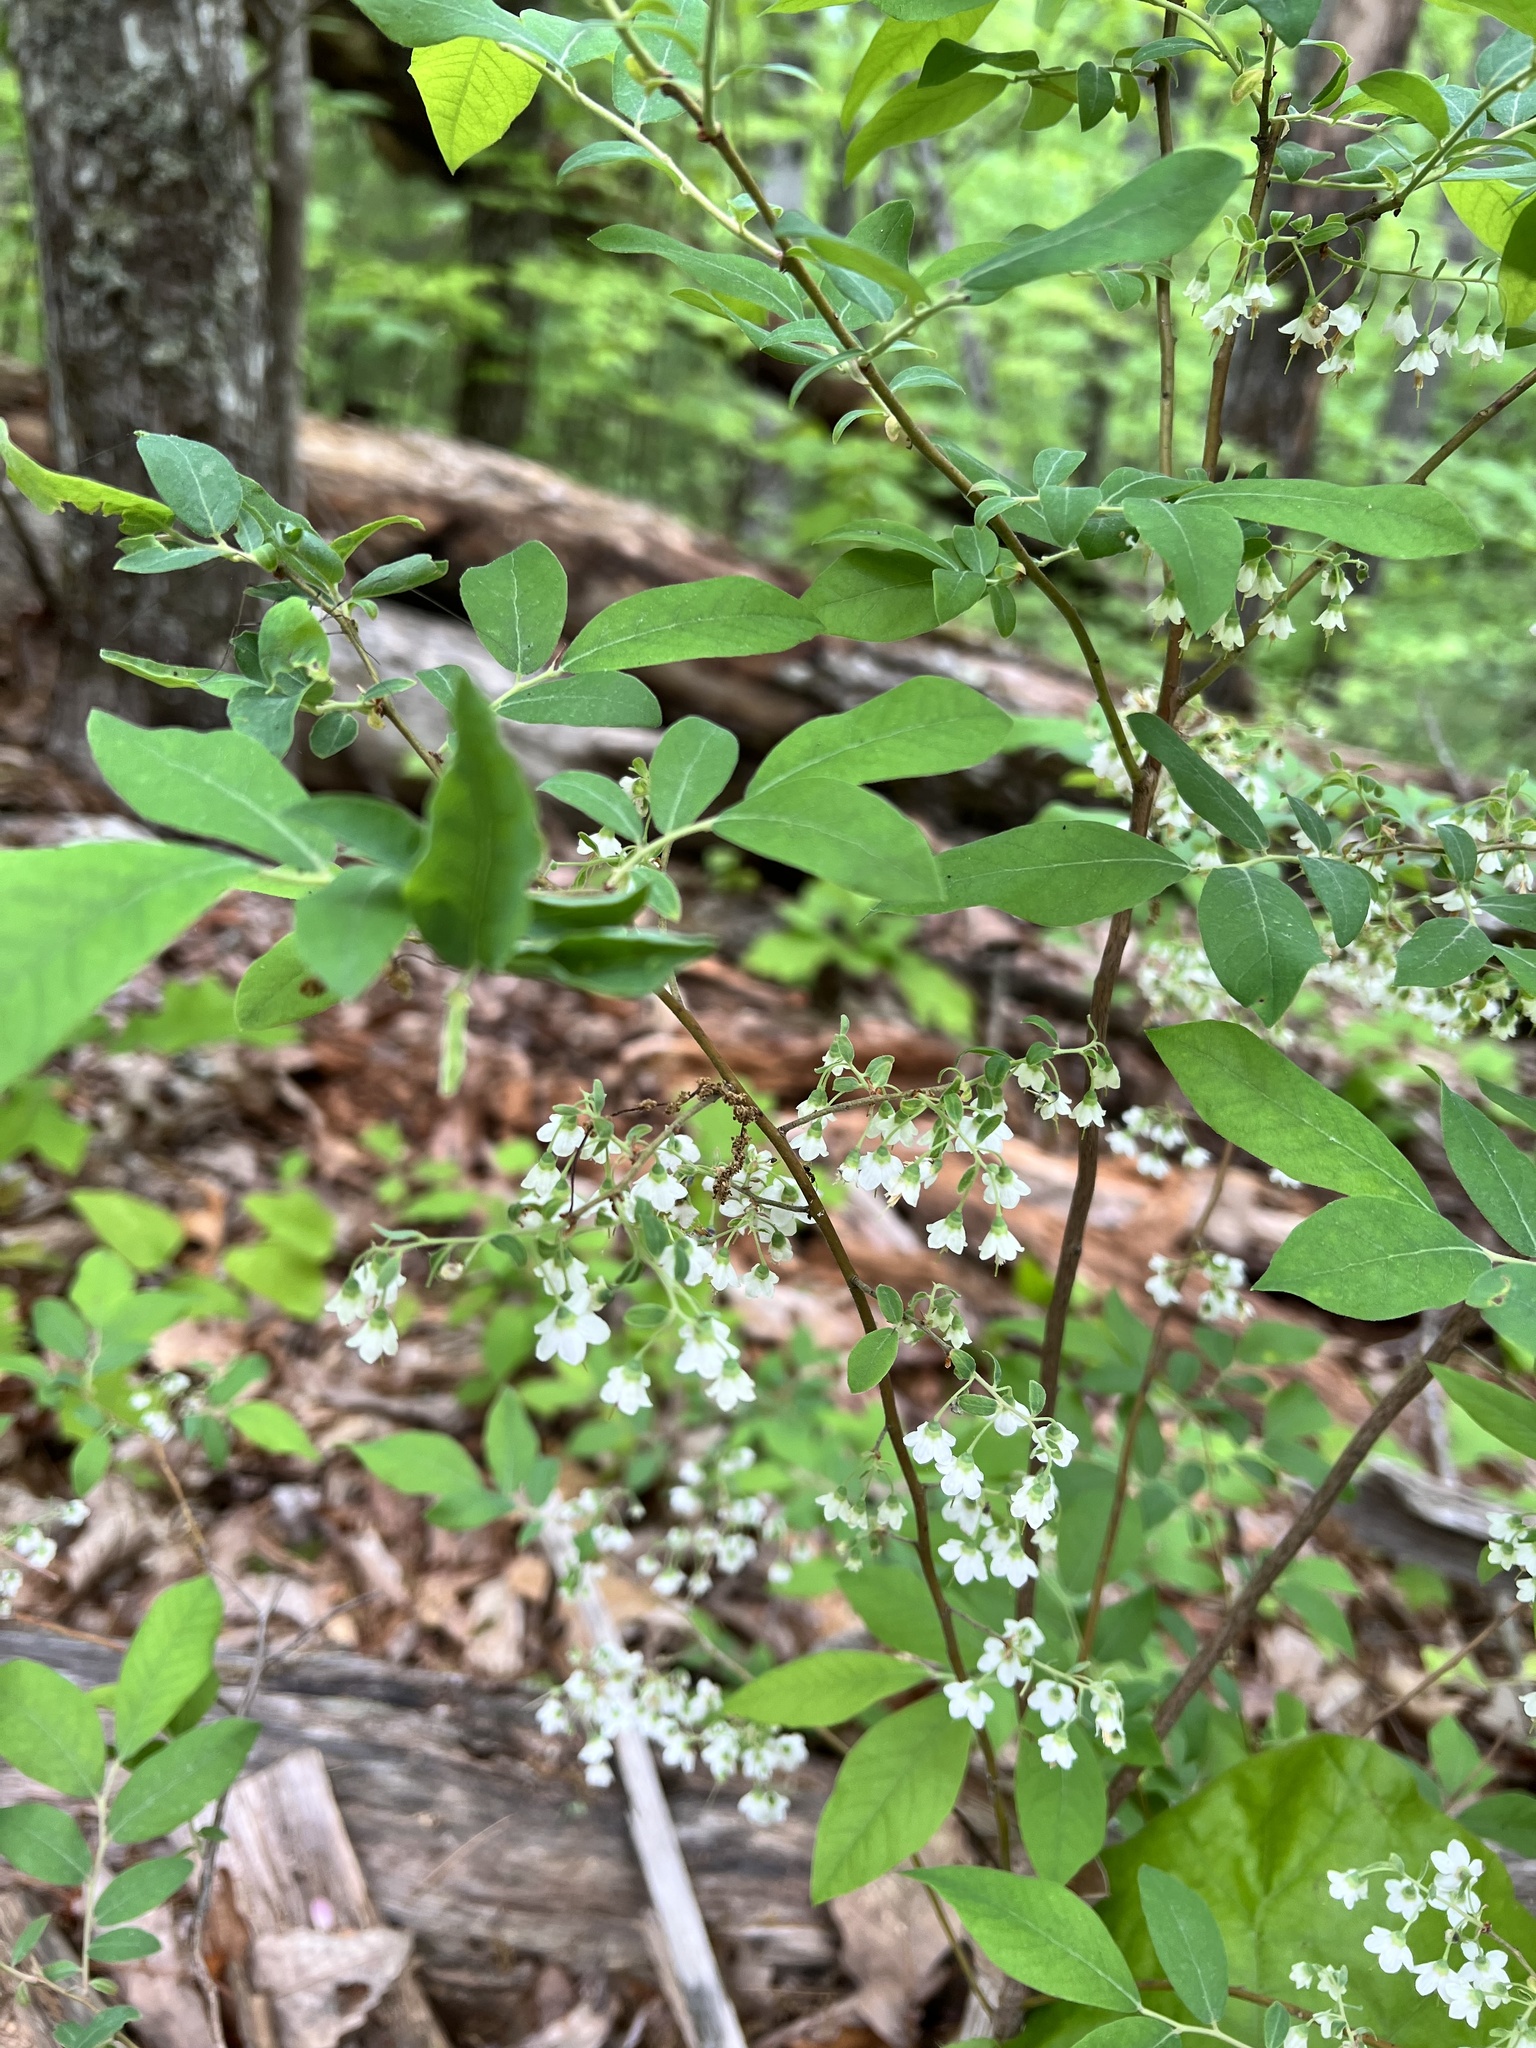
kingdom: Plantae
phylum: Tracheophyta
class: Magnoliopsida
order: Ericales
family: Ericaceae
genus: Vaccinium
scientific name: Vaccinium stamineum
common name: Deerberry
